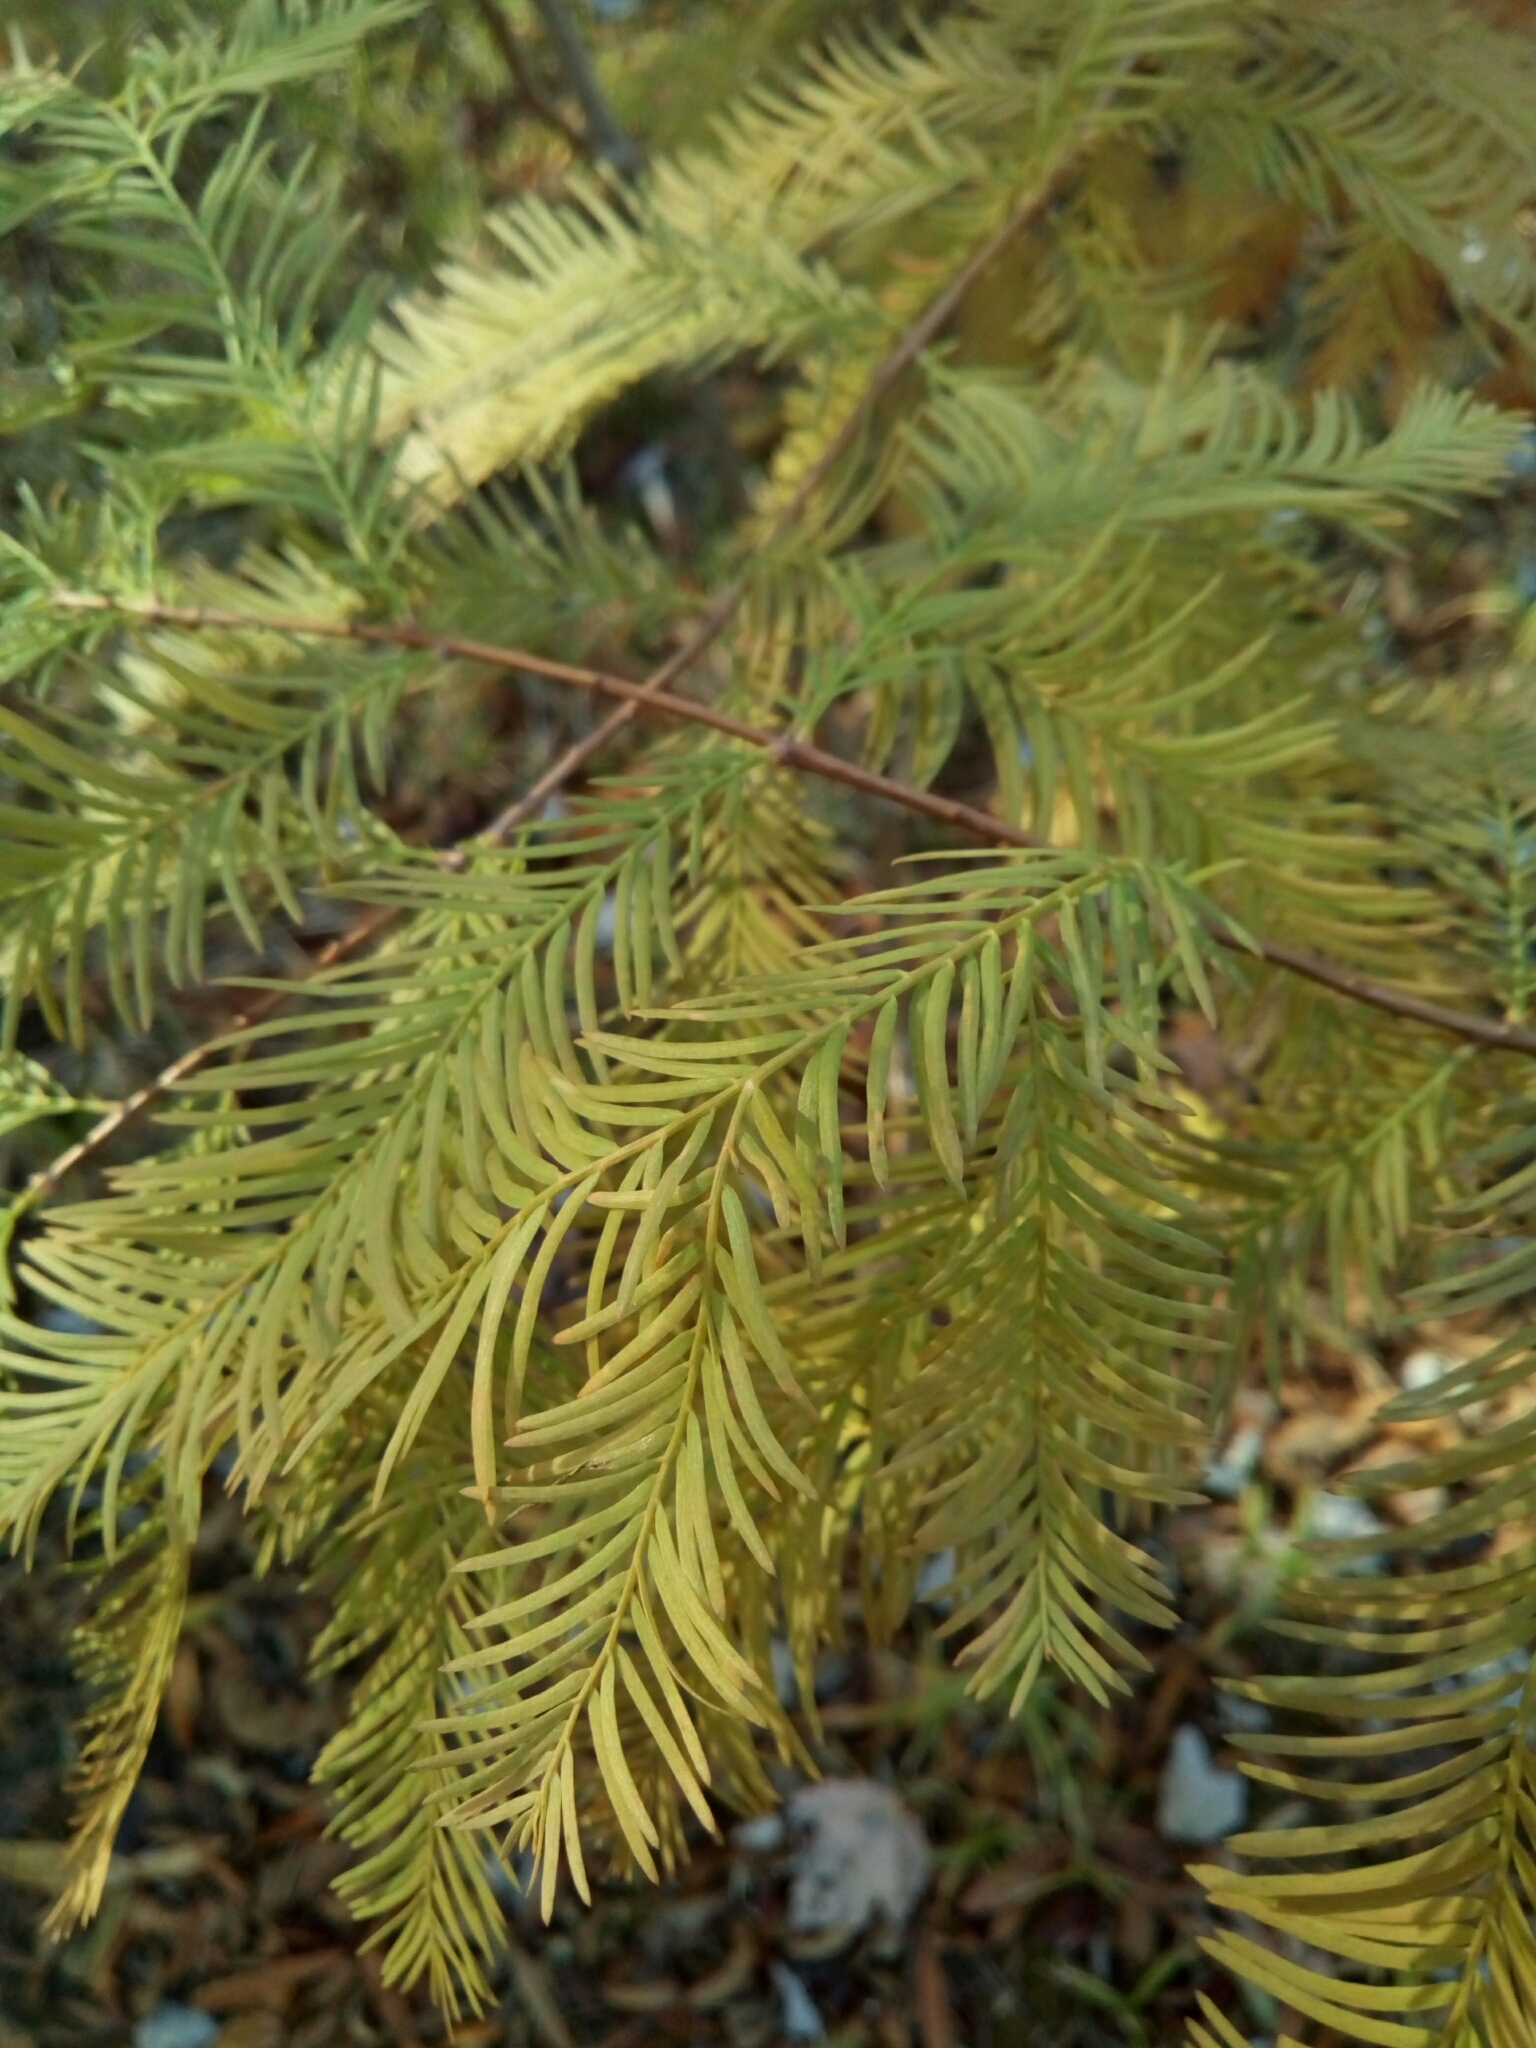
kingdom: Plantae
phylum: Tracheophyta
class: Pinopsida
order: Pinales
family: Cupressaceae
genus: Taxodium
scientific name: Taxodium distichum
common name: Bald cypress
